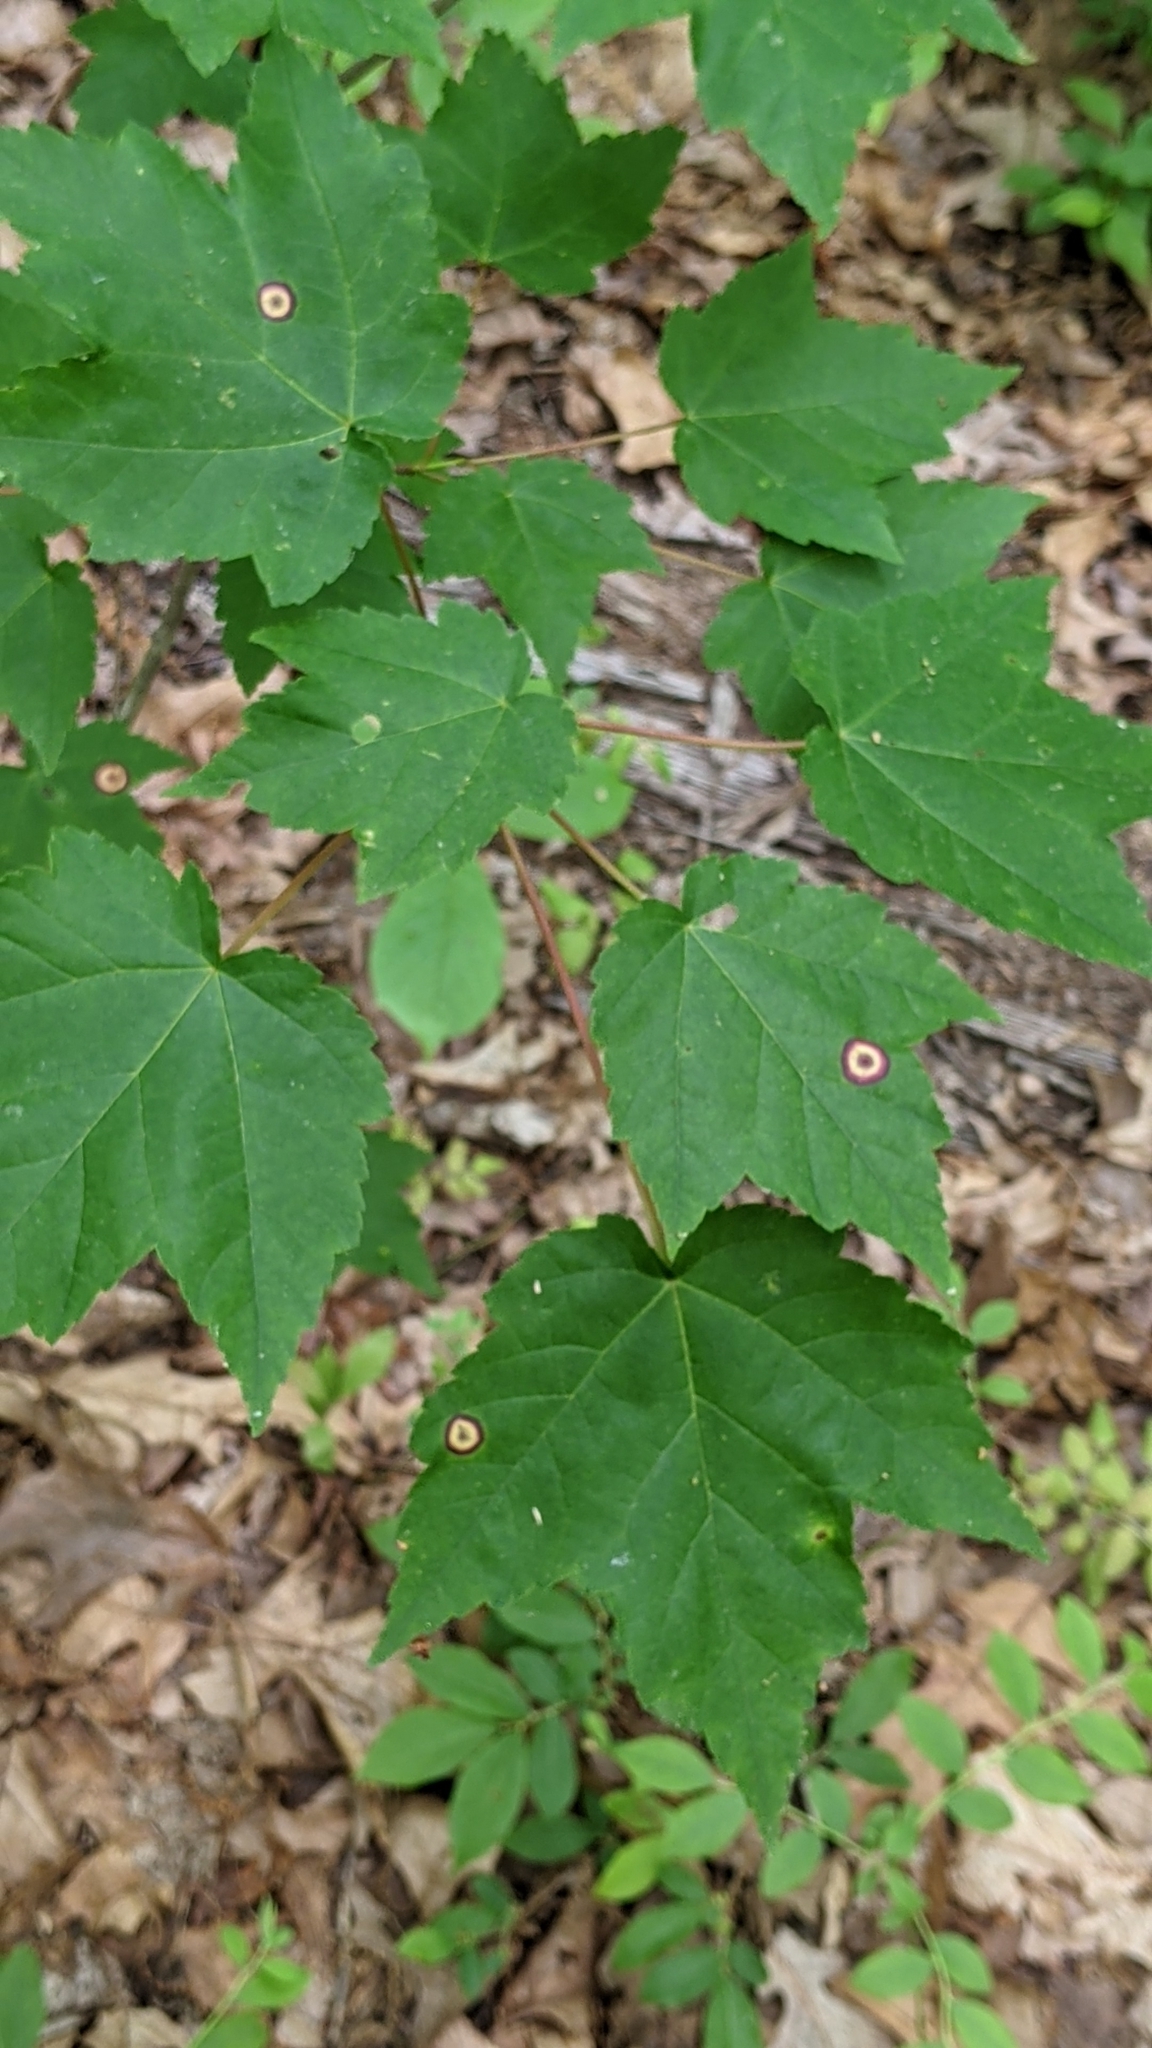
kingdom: Animalia
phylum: Arthropoda
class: Insecta
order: Diptera
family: Cecidomyiidae
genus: Acericecis
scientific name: Acericecis ocellaris
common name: Ocellate gall midge
